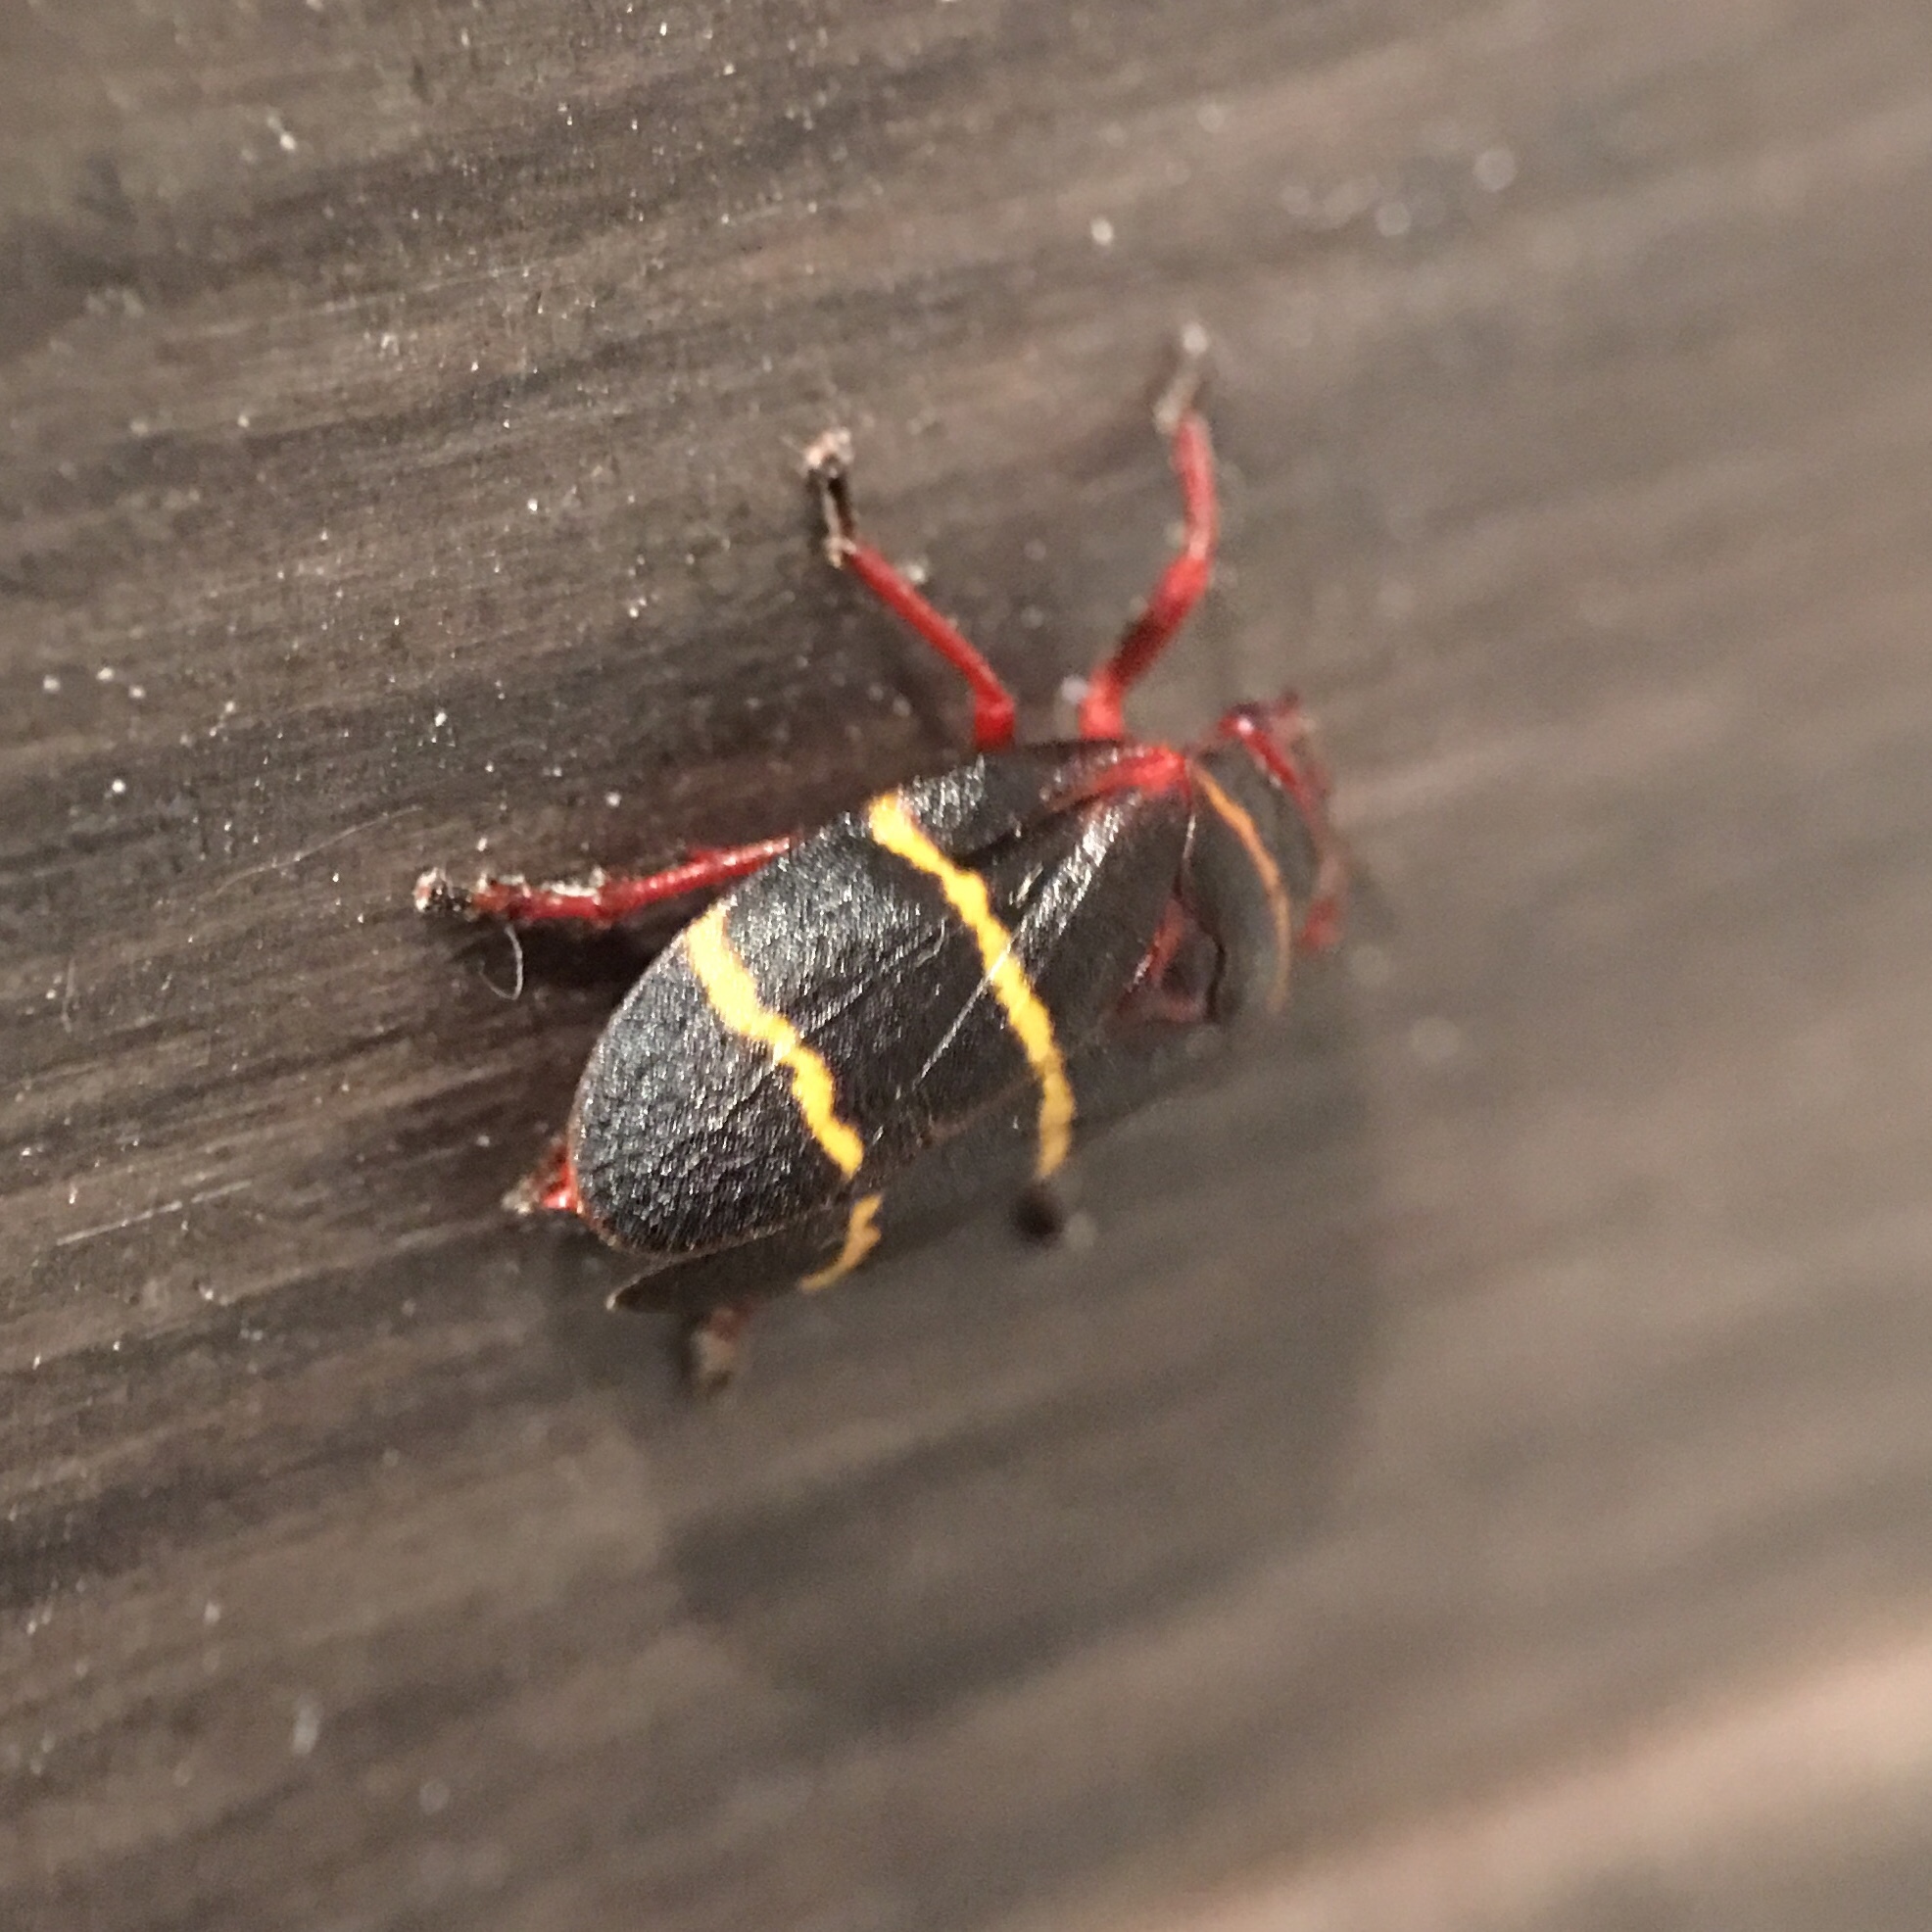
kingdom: Animalia
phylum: Arthropoda
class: Insecta
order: Hemiptera
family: Cercopidae
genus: Prosapia
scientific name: Prosapia bicincta
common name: Twolined spittlebug
